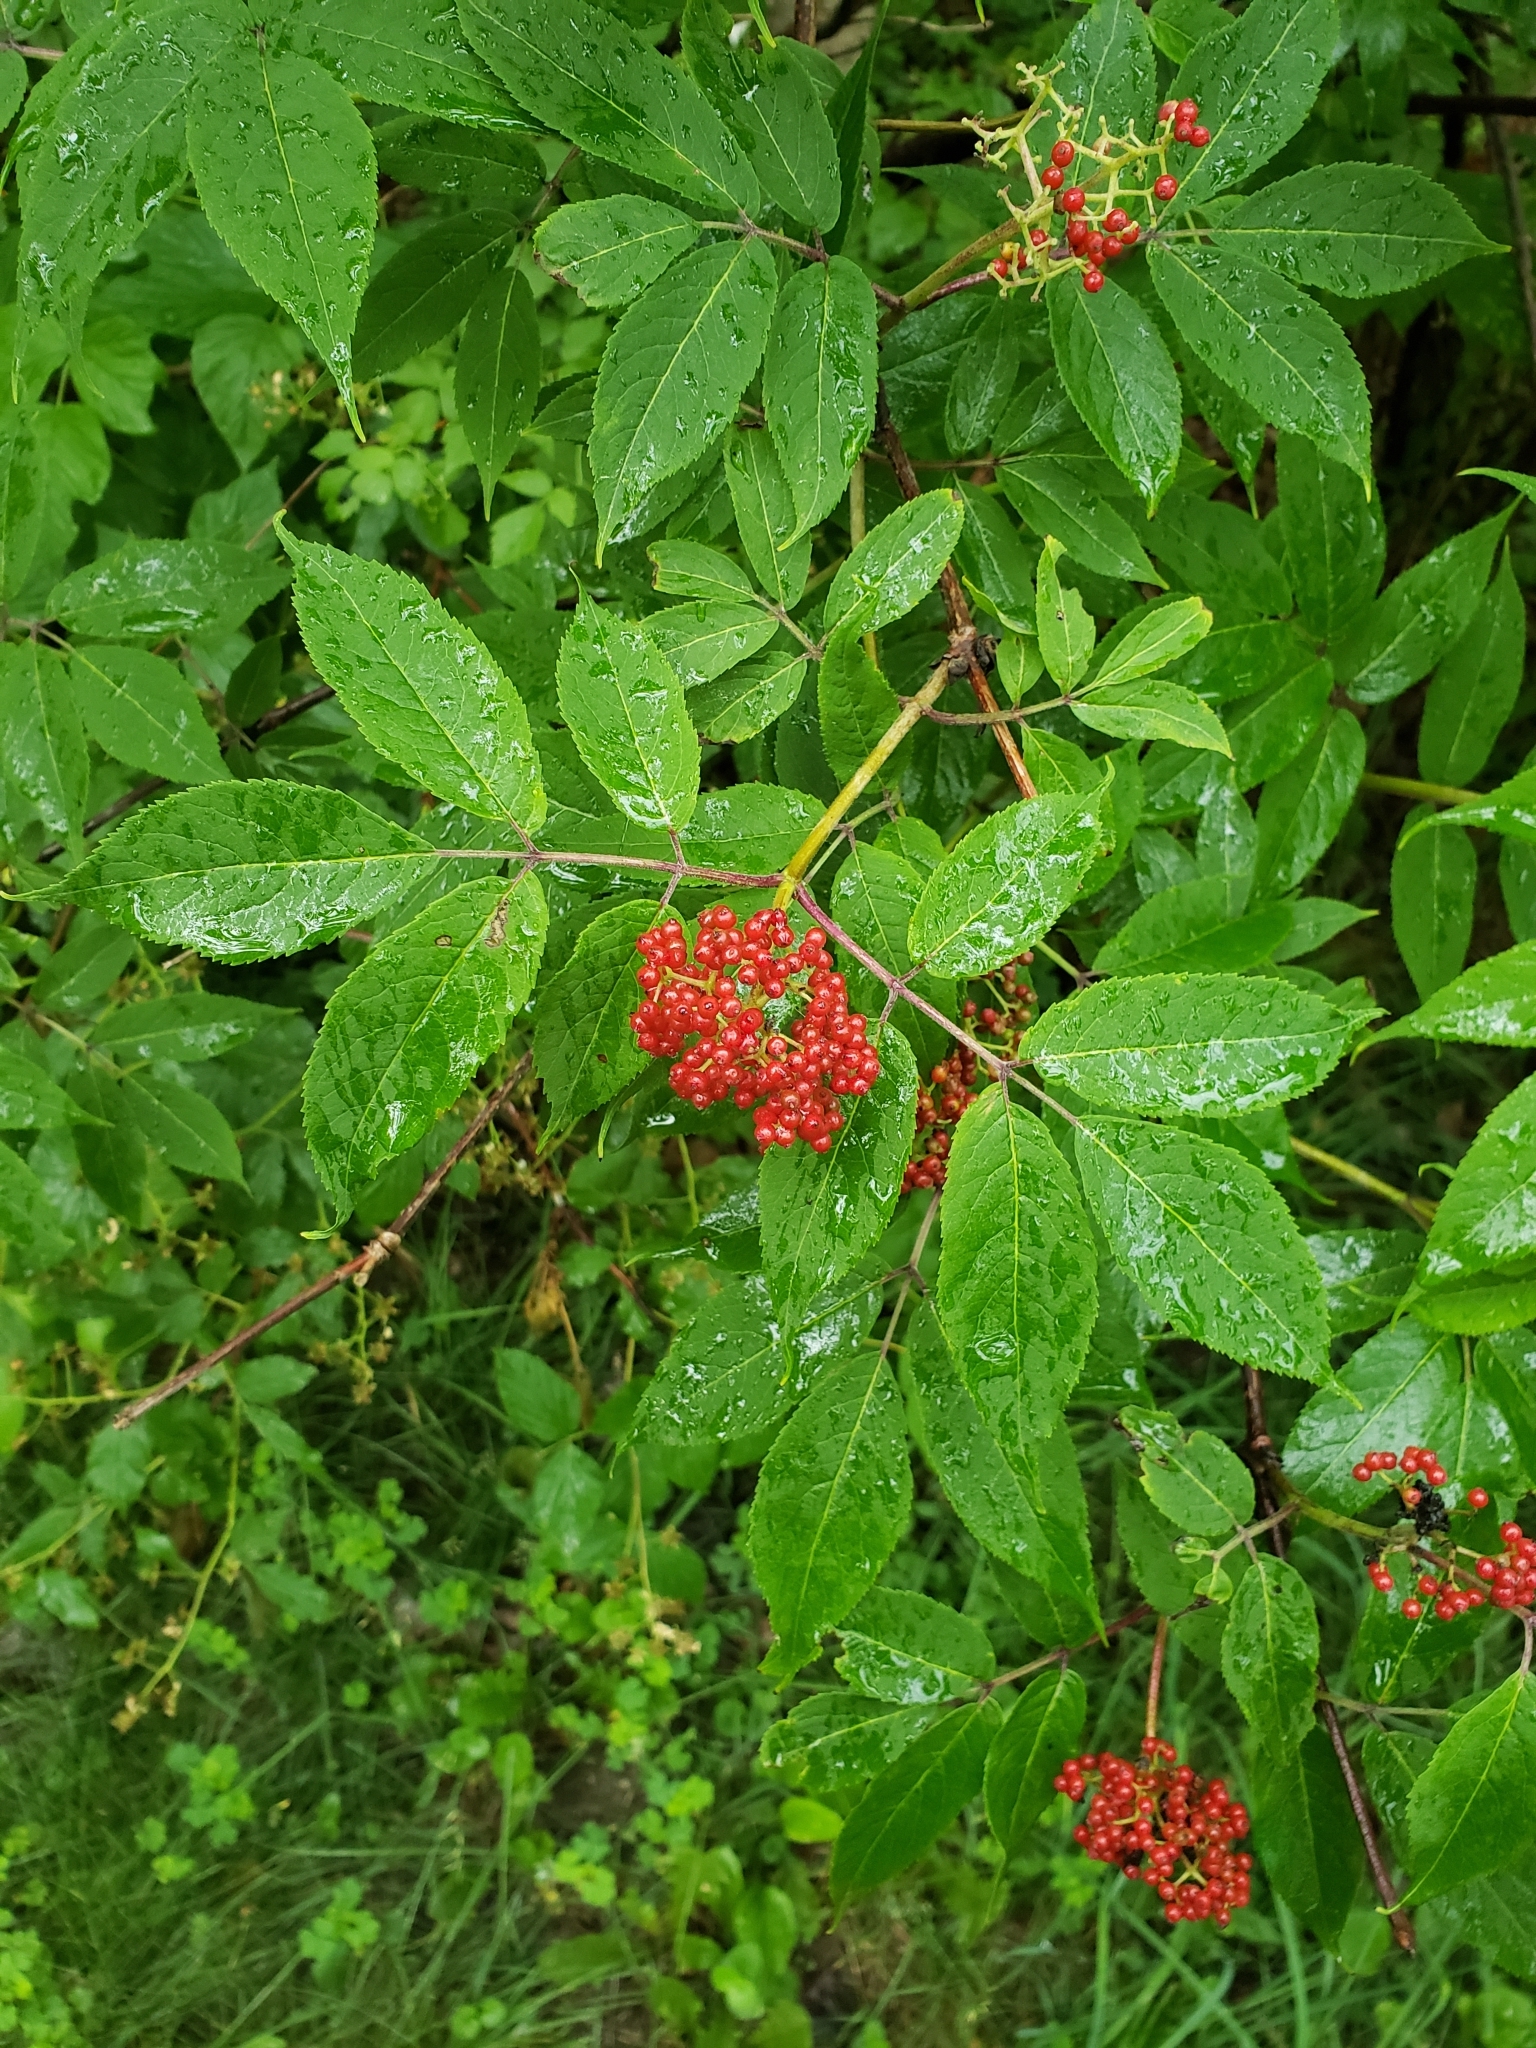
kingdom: Plantae
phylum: Tracheophyta
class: Magnoliopsida
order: Dipsacales
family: Viburnaceae
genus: Sambucus
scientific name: Sambucus racemosa
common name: Red-berried elder
